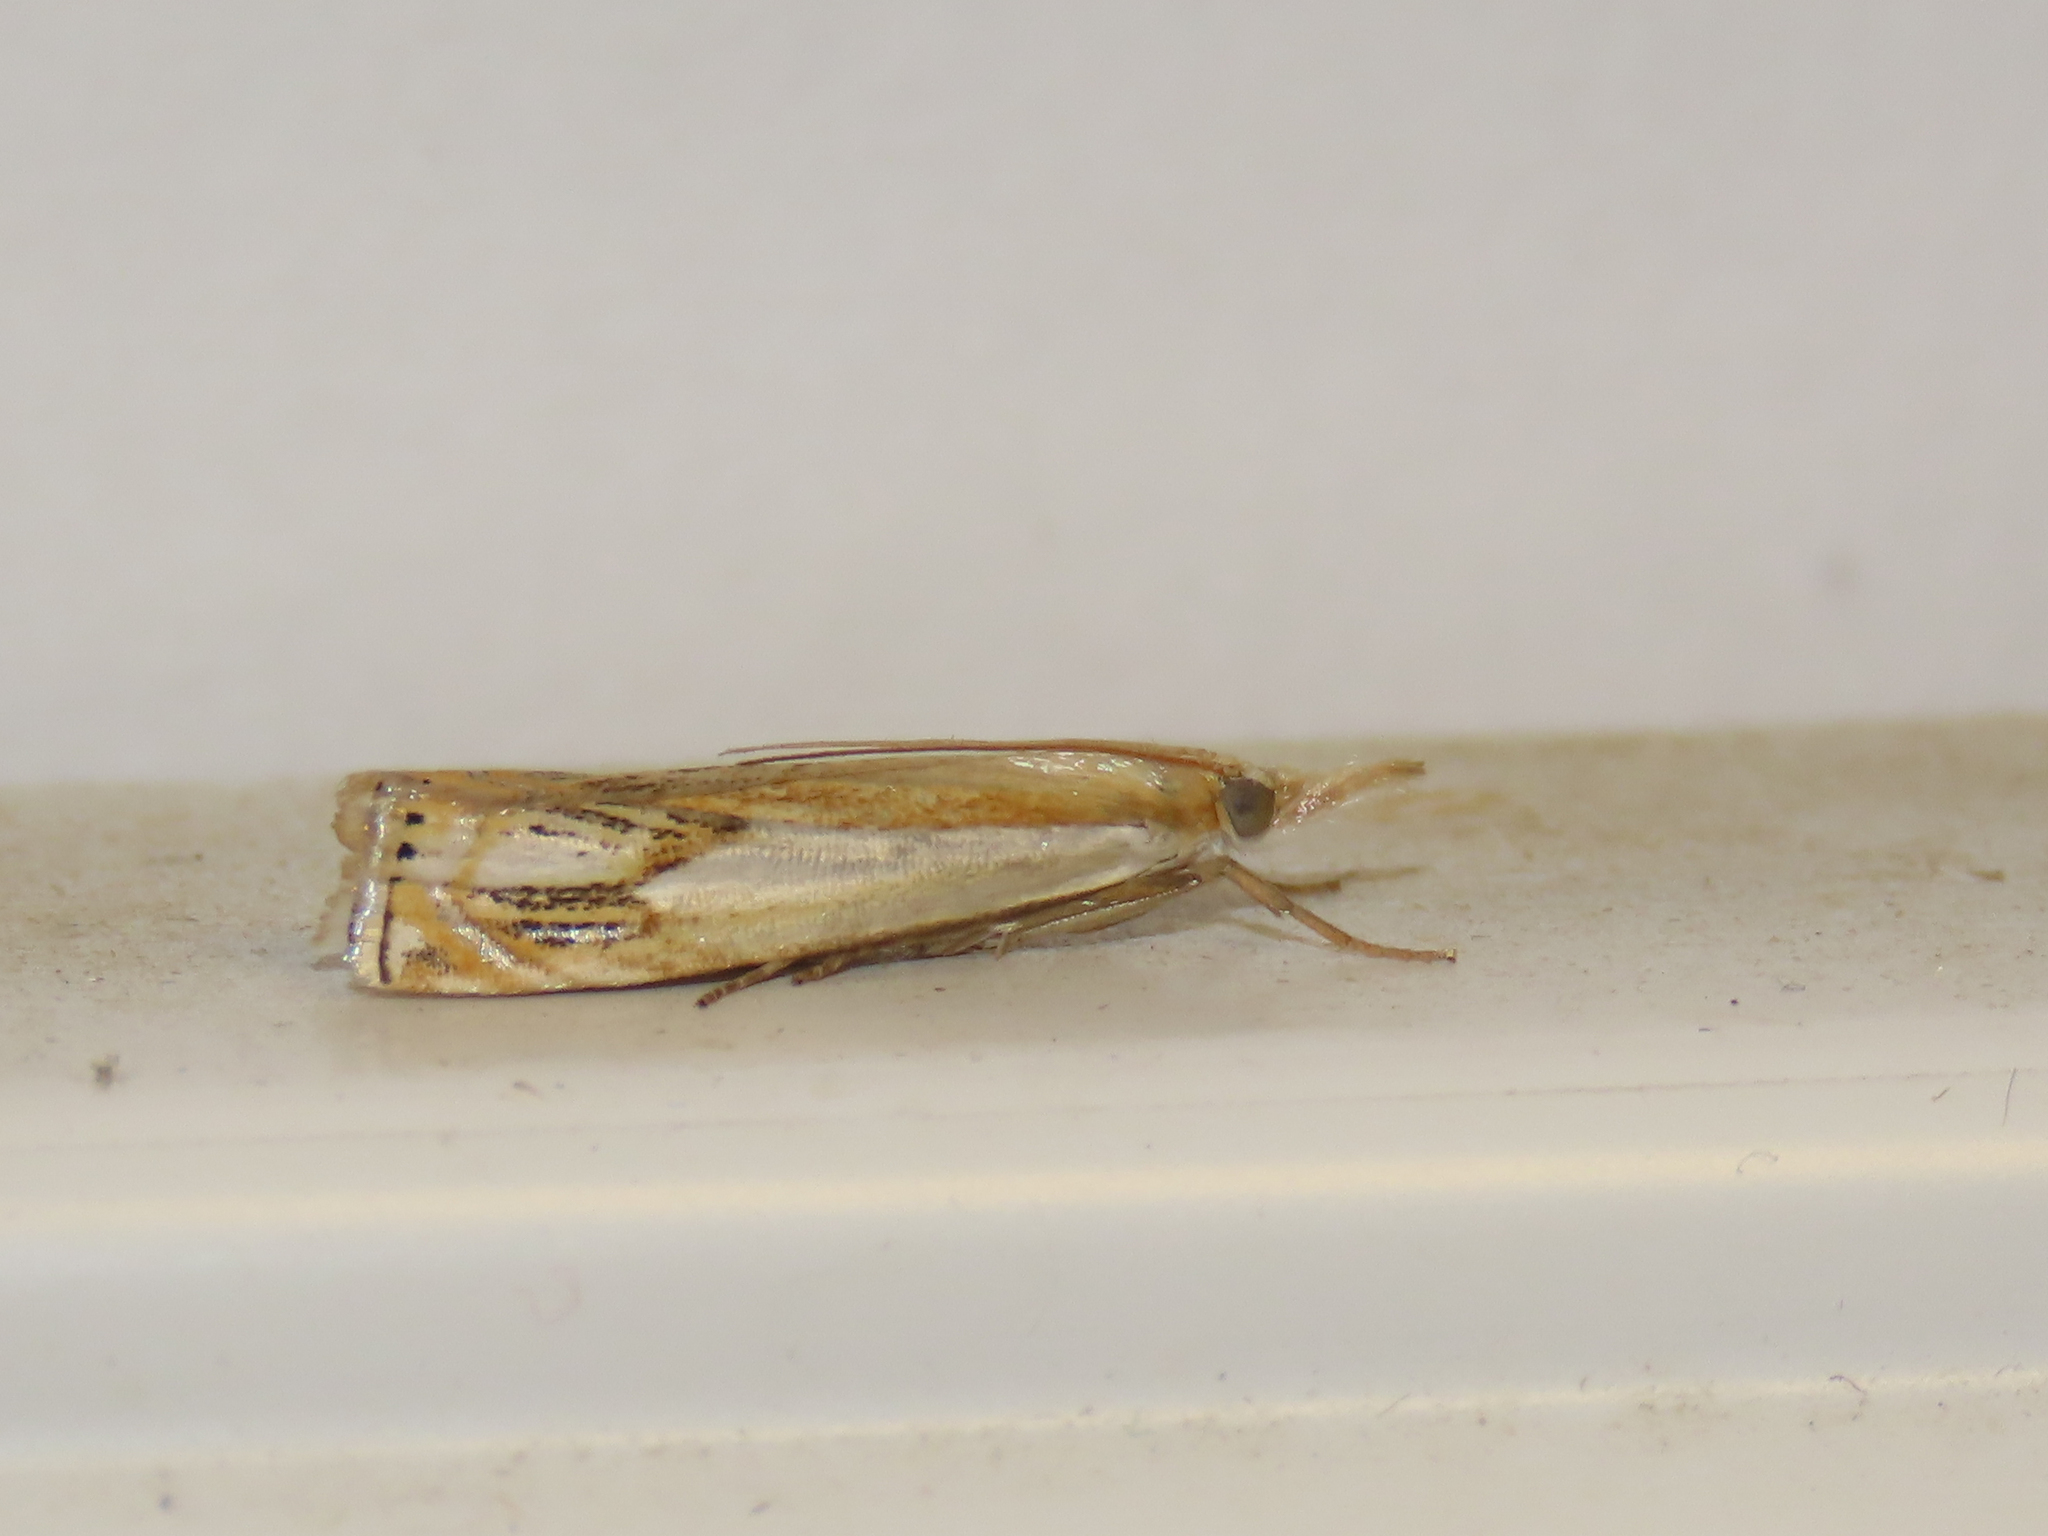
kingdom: Animalia
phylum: Arthropoda
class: Insecta
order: Lepidoptera
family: Crambidae
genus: Crambus
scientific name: Crambus agitatellus
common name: Double-banded grass-veneer
